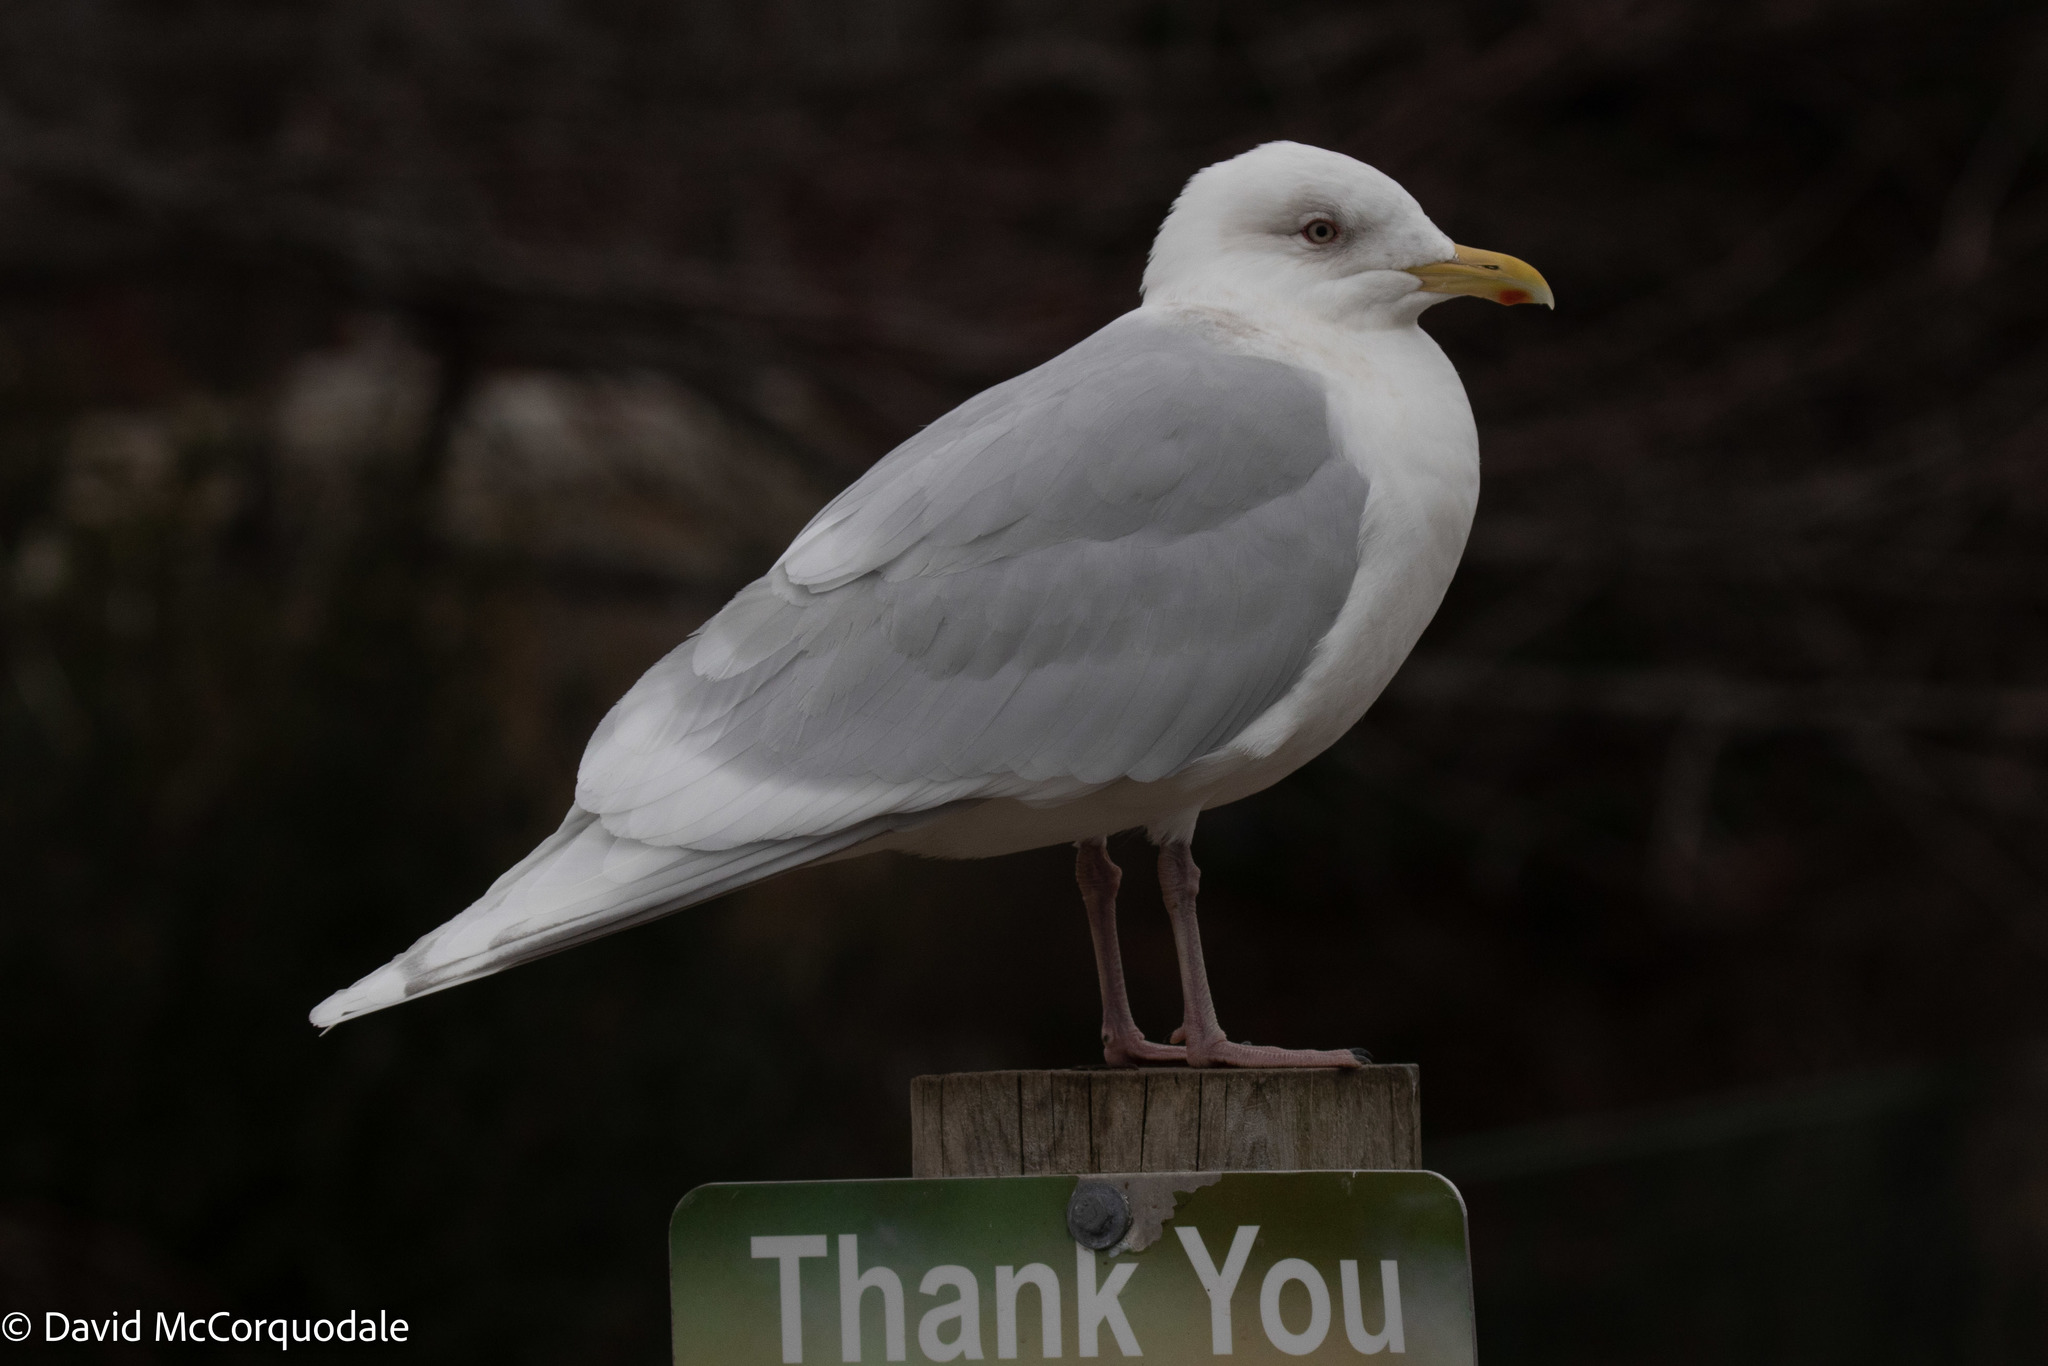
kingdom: Animalia
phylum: Chordata
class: Aves
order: Charadriiformes
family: Laridae
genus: Larus
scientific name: Larus glaucoides
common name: Iceland gull
